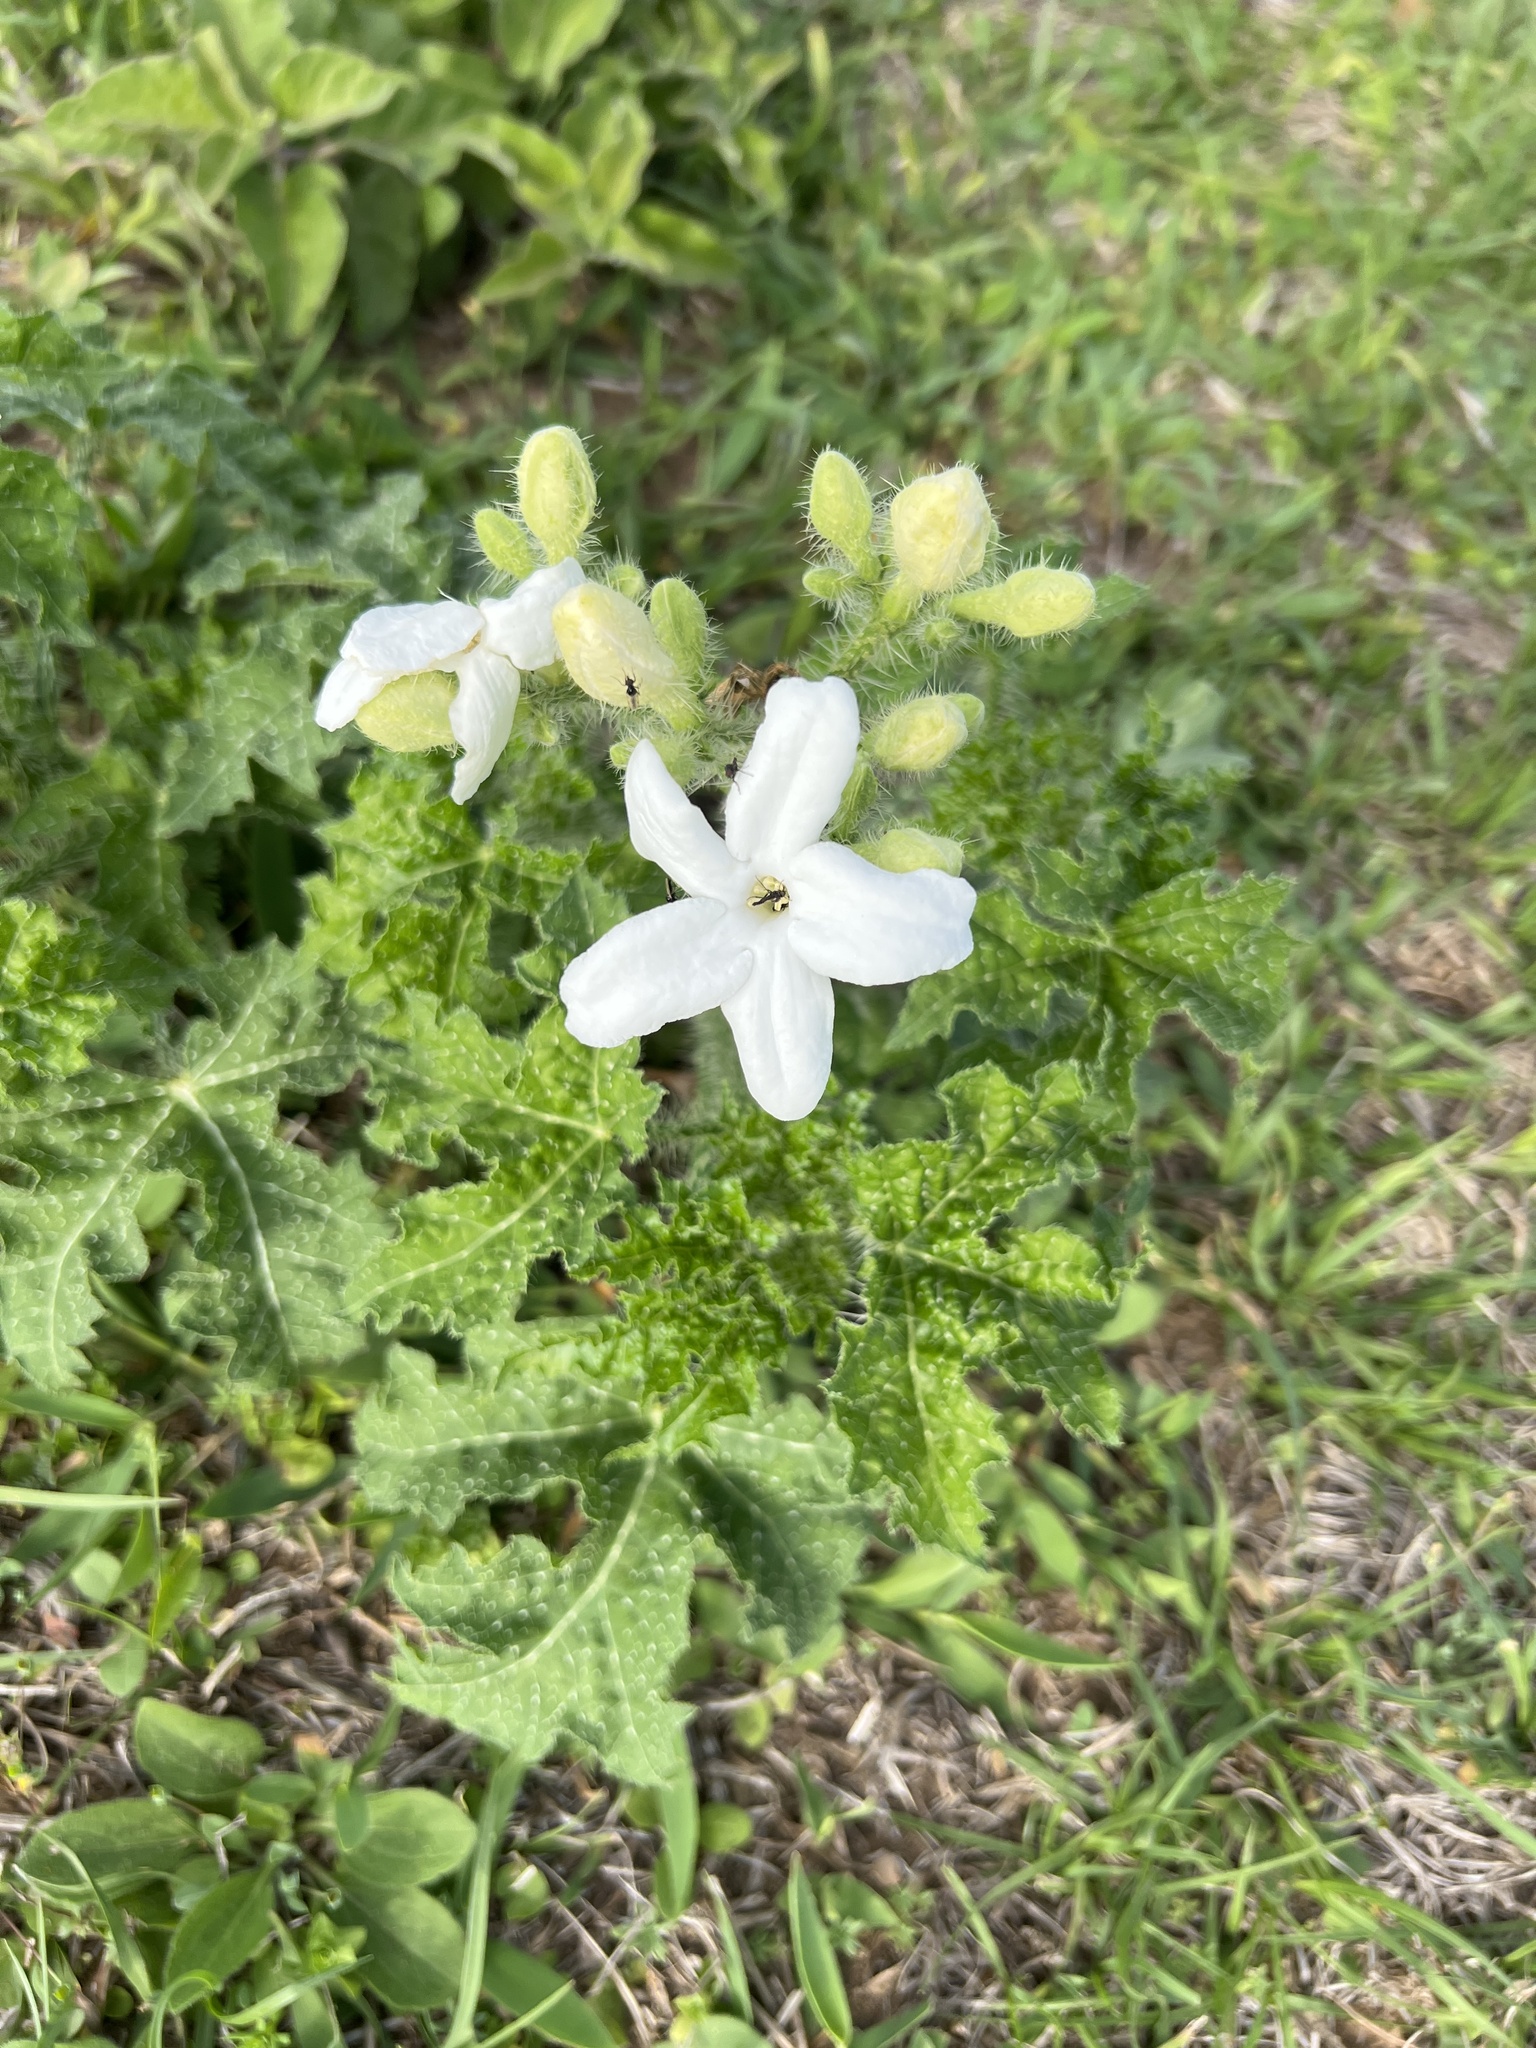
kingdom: Plantae
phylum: Tracheophyta
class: Magnoliopsida
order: Malpighiales
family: Euphorbiaceae
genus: Cnidoscolus
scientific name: Cnidoscolus texanus
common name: Texas bull-nettle
